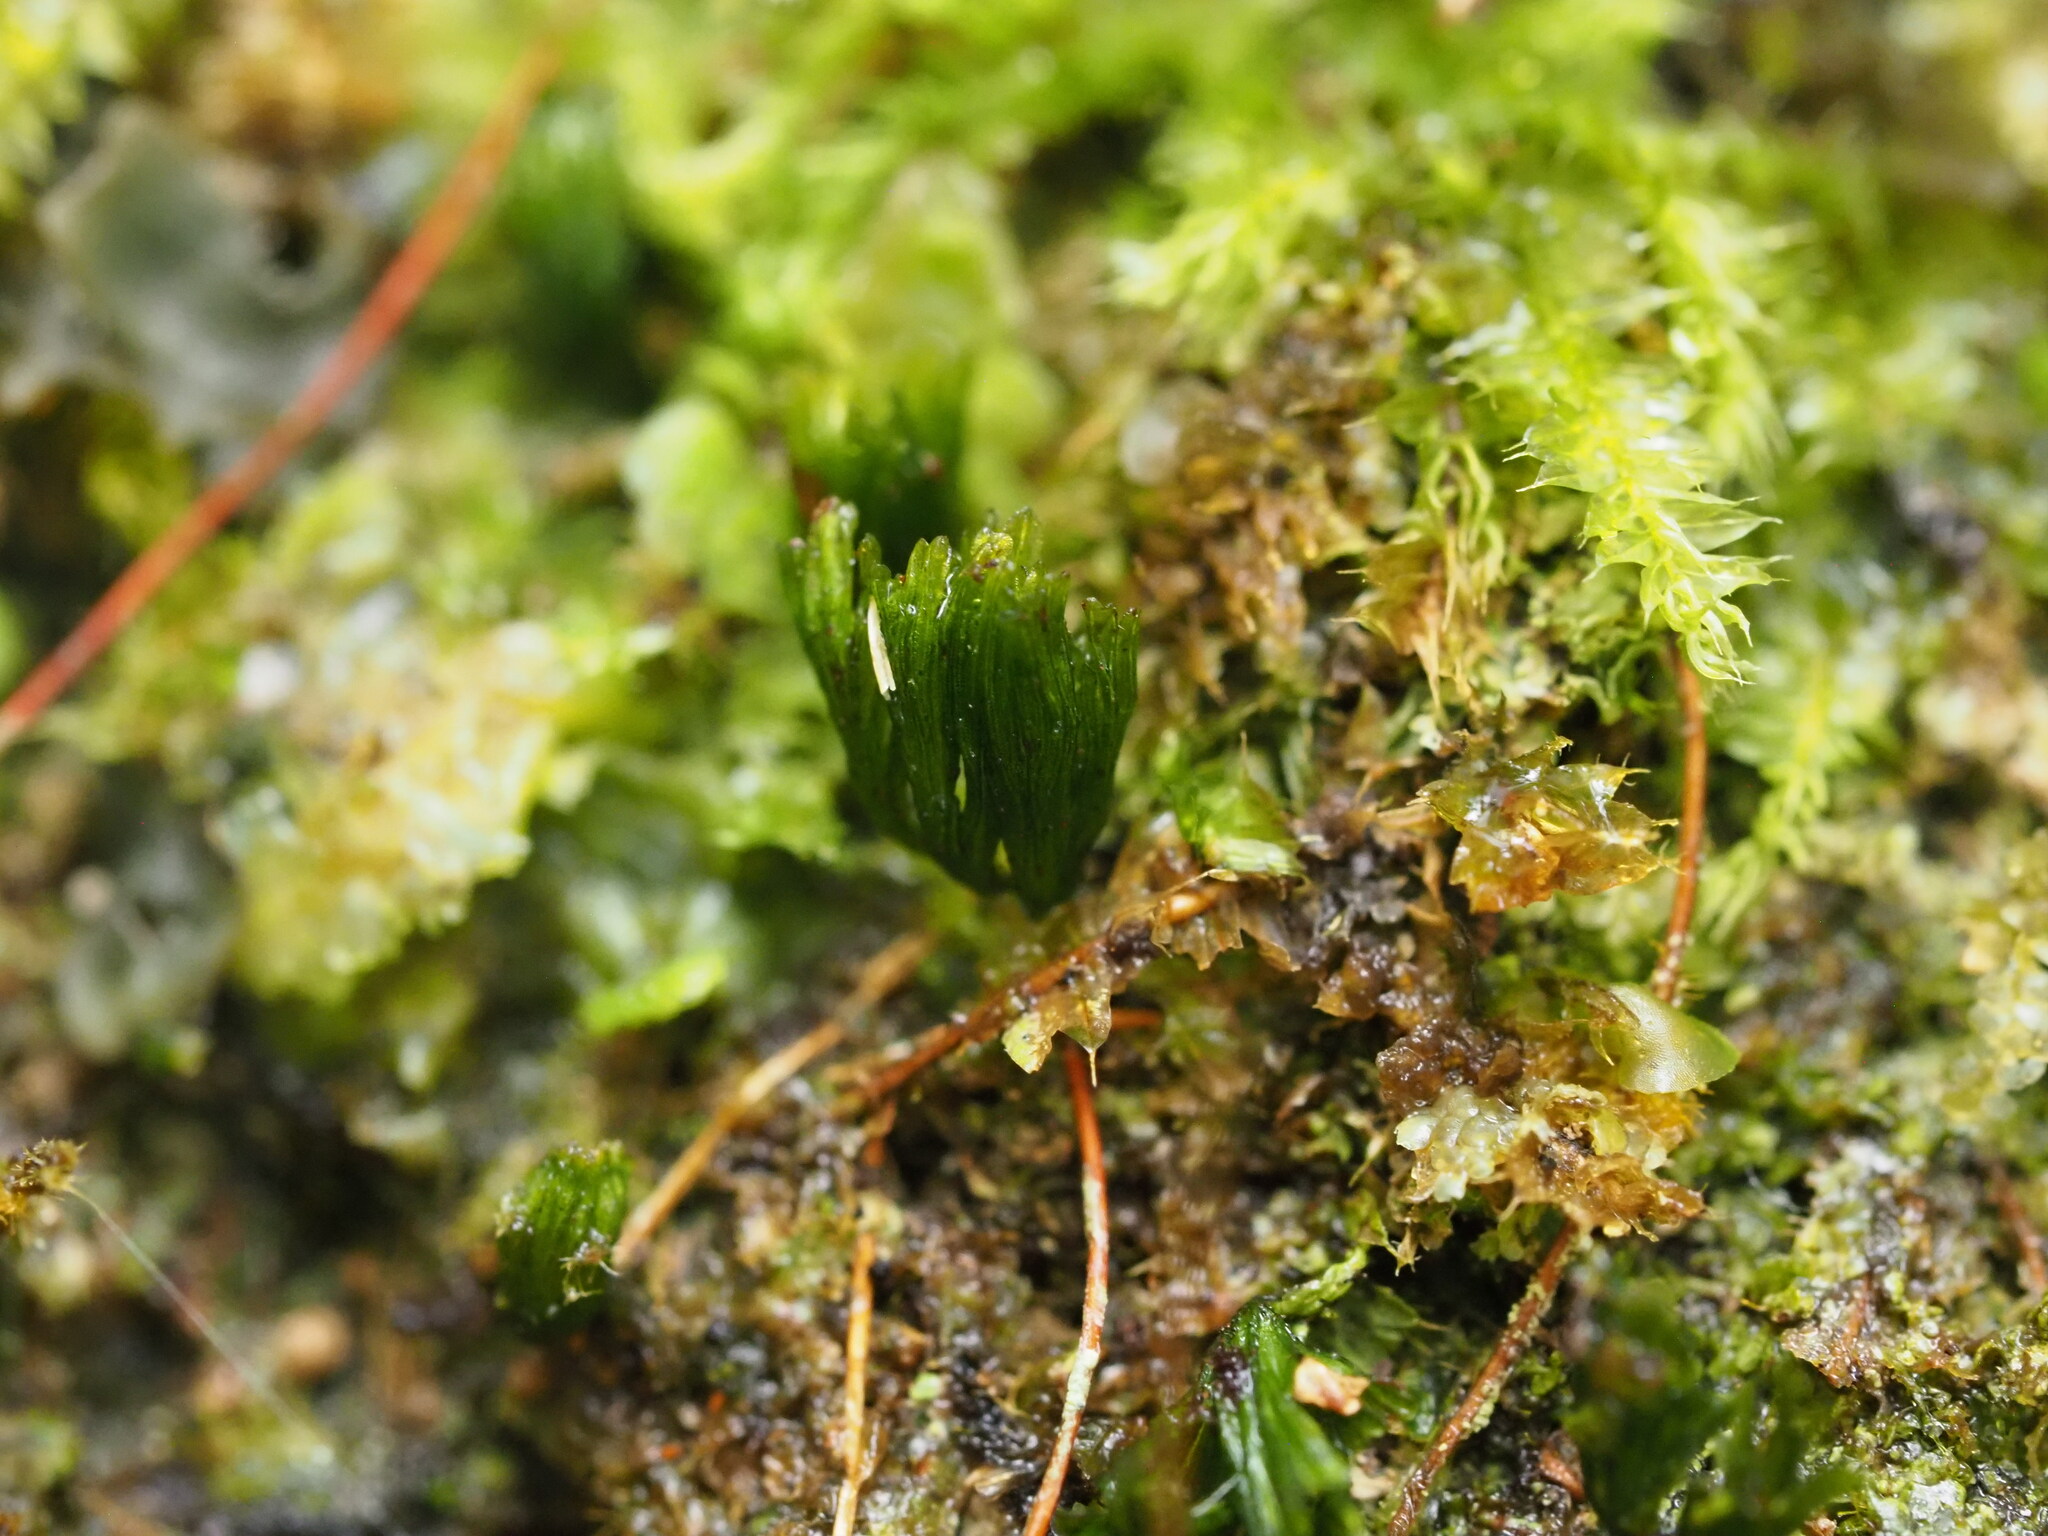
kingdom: Plantae
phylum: Tracheophyta
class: Polypodiopsida
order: Hymenophyllales
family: Hymenophyllaceae
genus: Crepidomanes
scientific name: Crepidomanes parvulum
